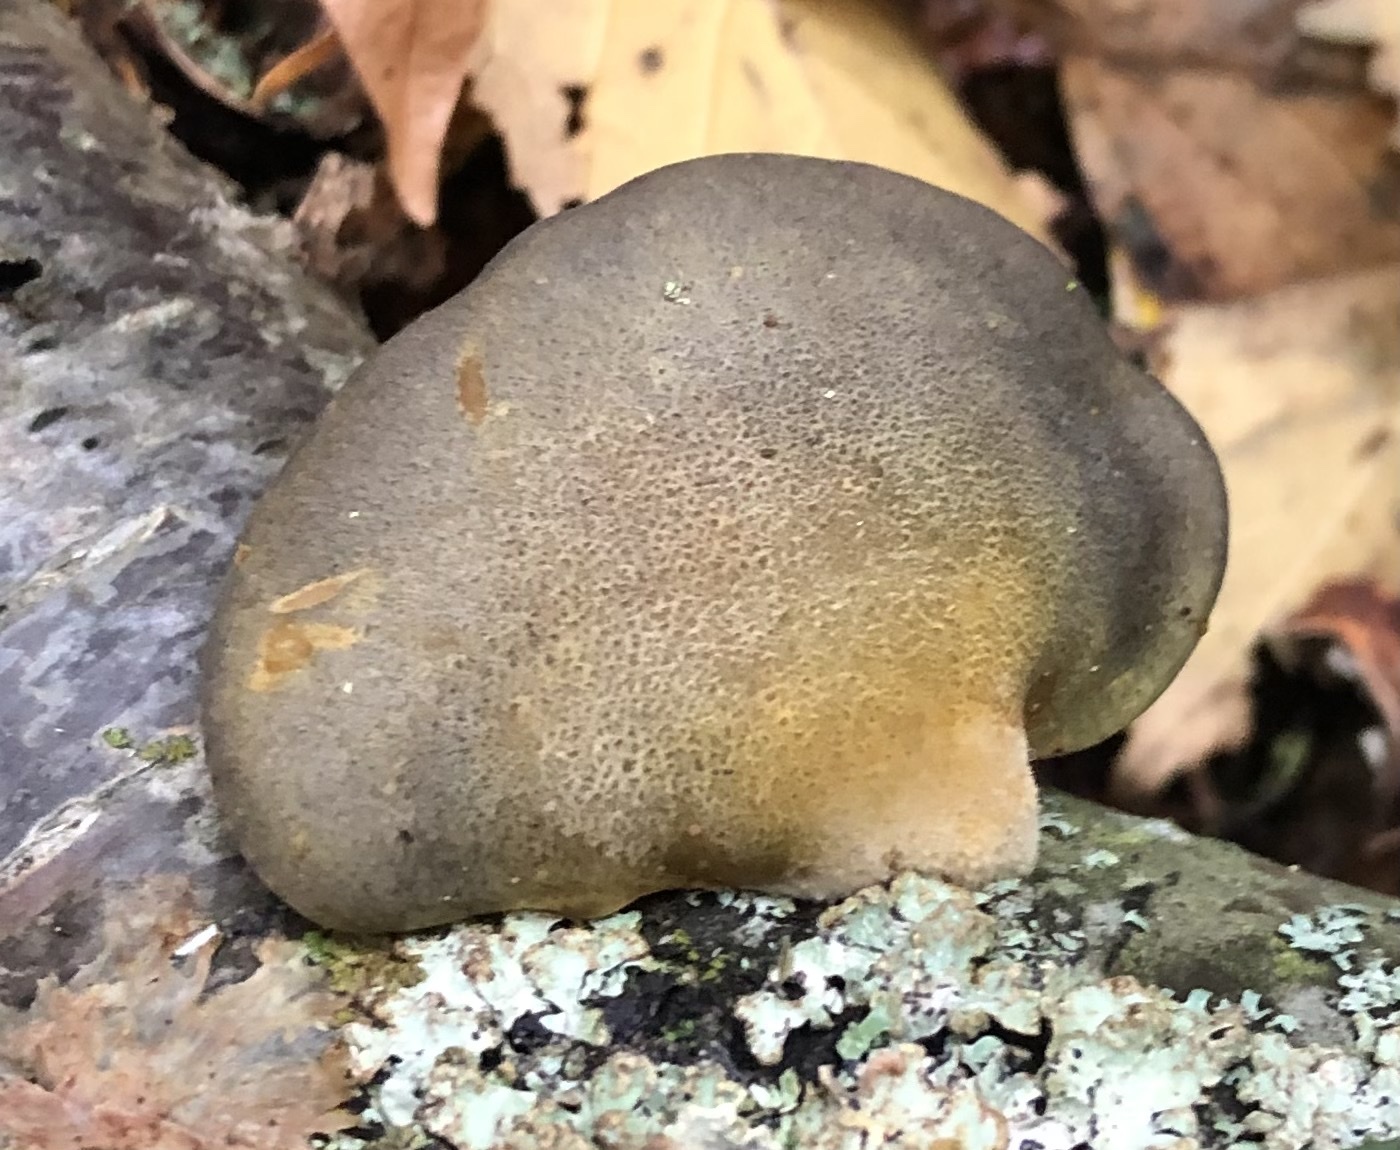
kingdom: Fungi
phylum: Basidiomycota
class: Agaricomycetes
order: Agaricales
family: Sarcomyxaceae
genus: Sarcomyxa
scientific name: Sarcomyxa serotina
